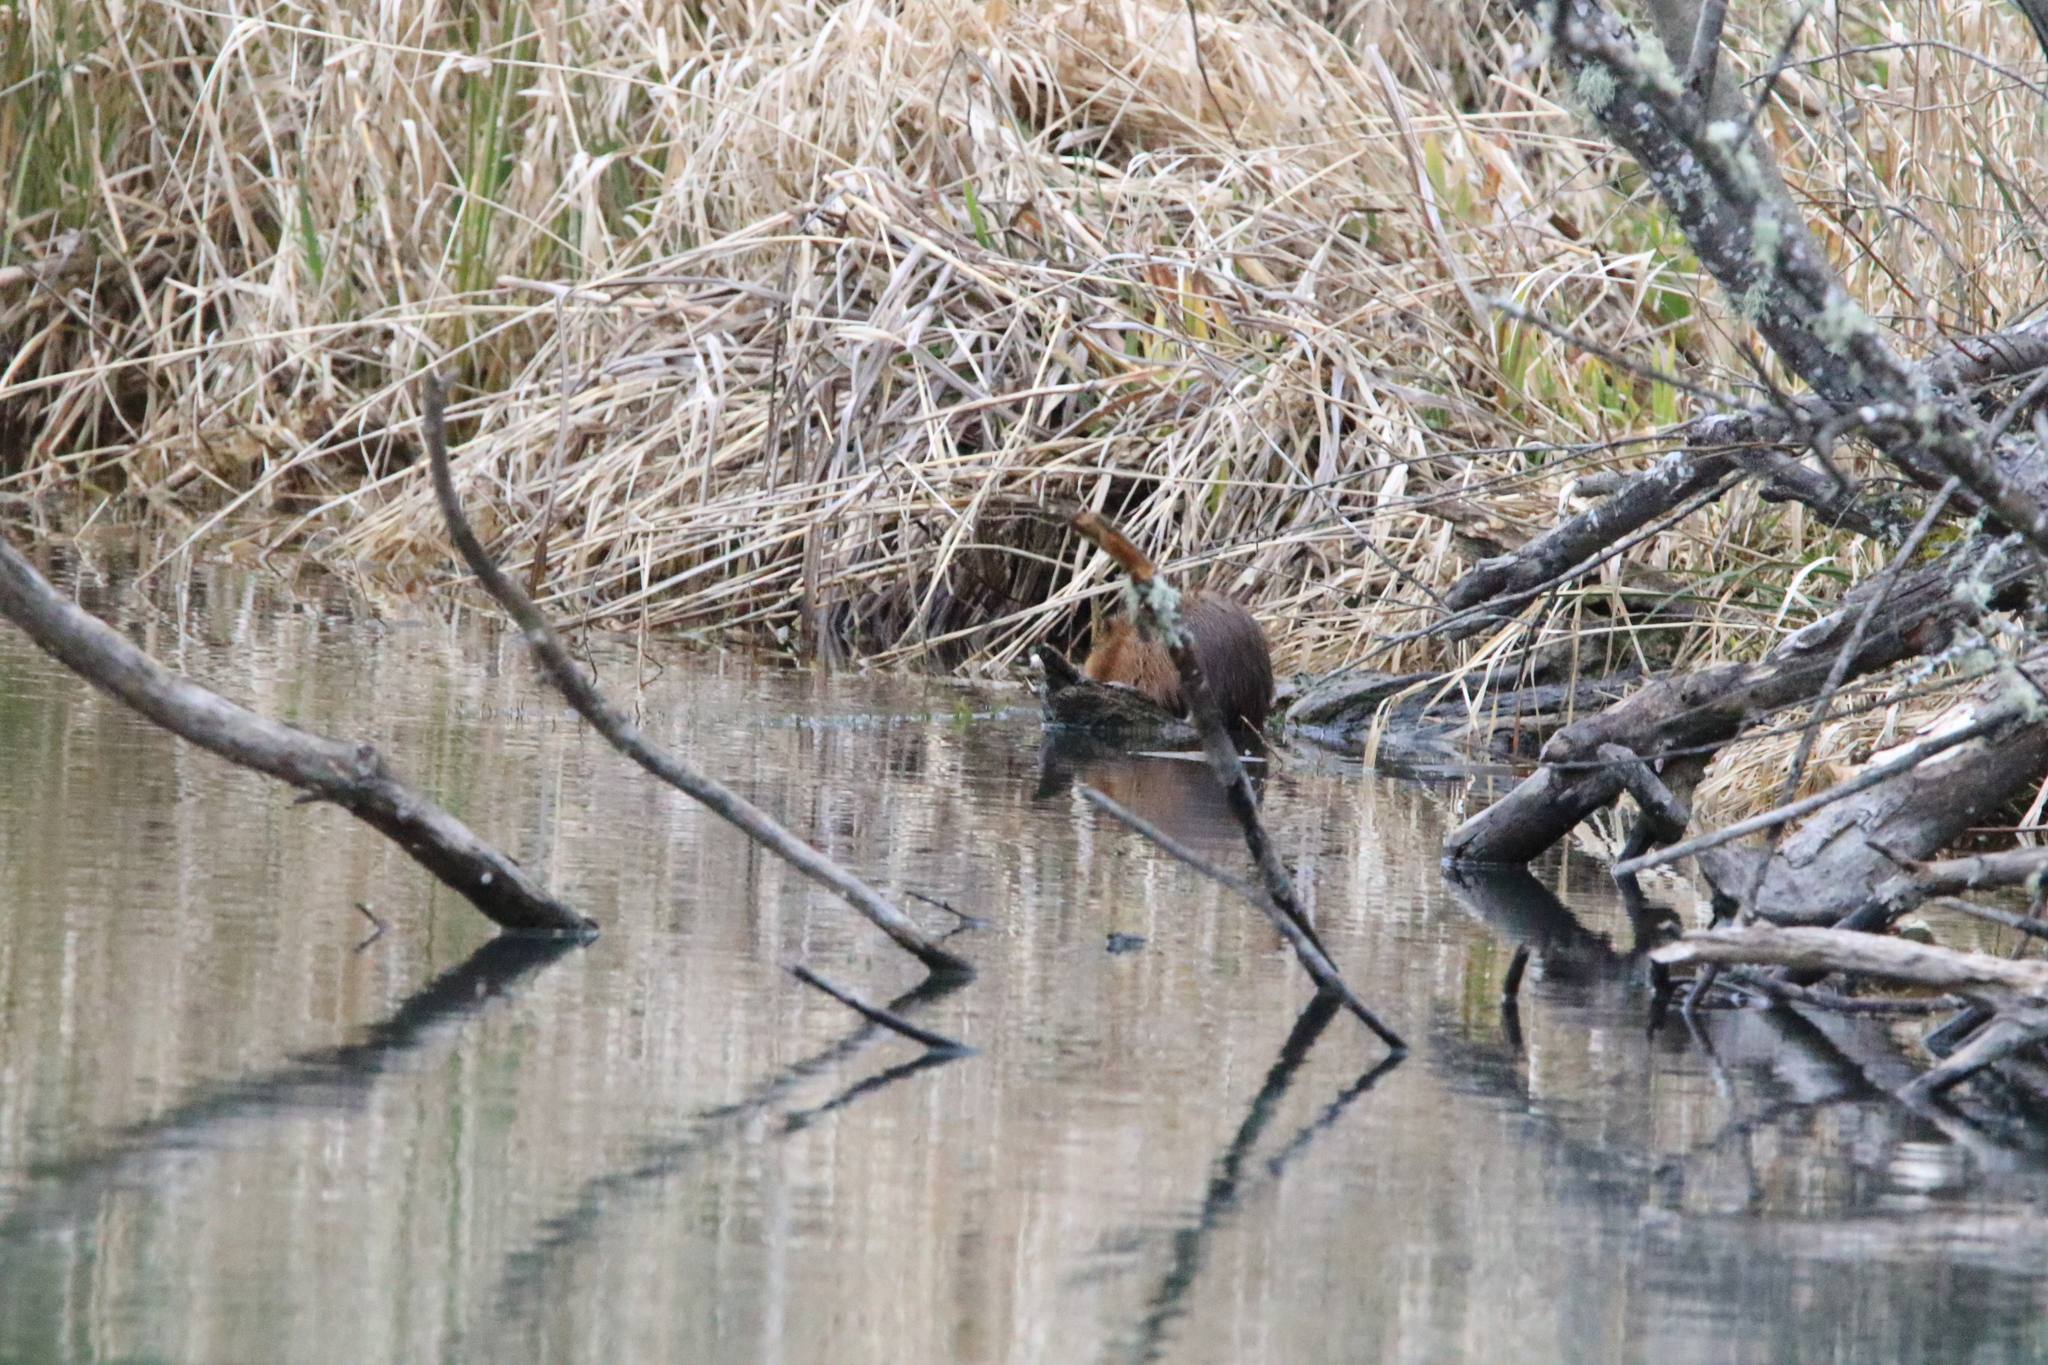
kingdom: Animalia
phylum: Chordata
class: Mammalia
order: Rodentia
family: Cricetidae
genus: Ondatra
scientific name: Ondatra zibethicus
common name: Muskrat
